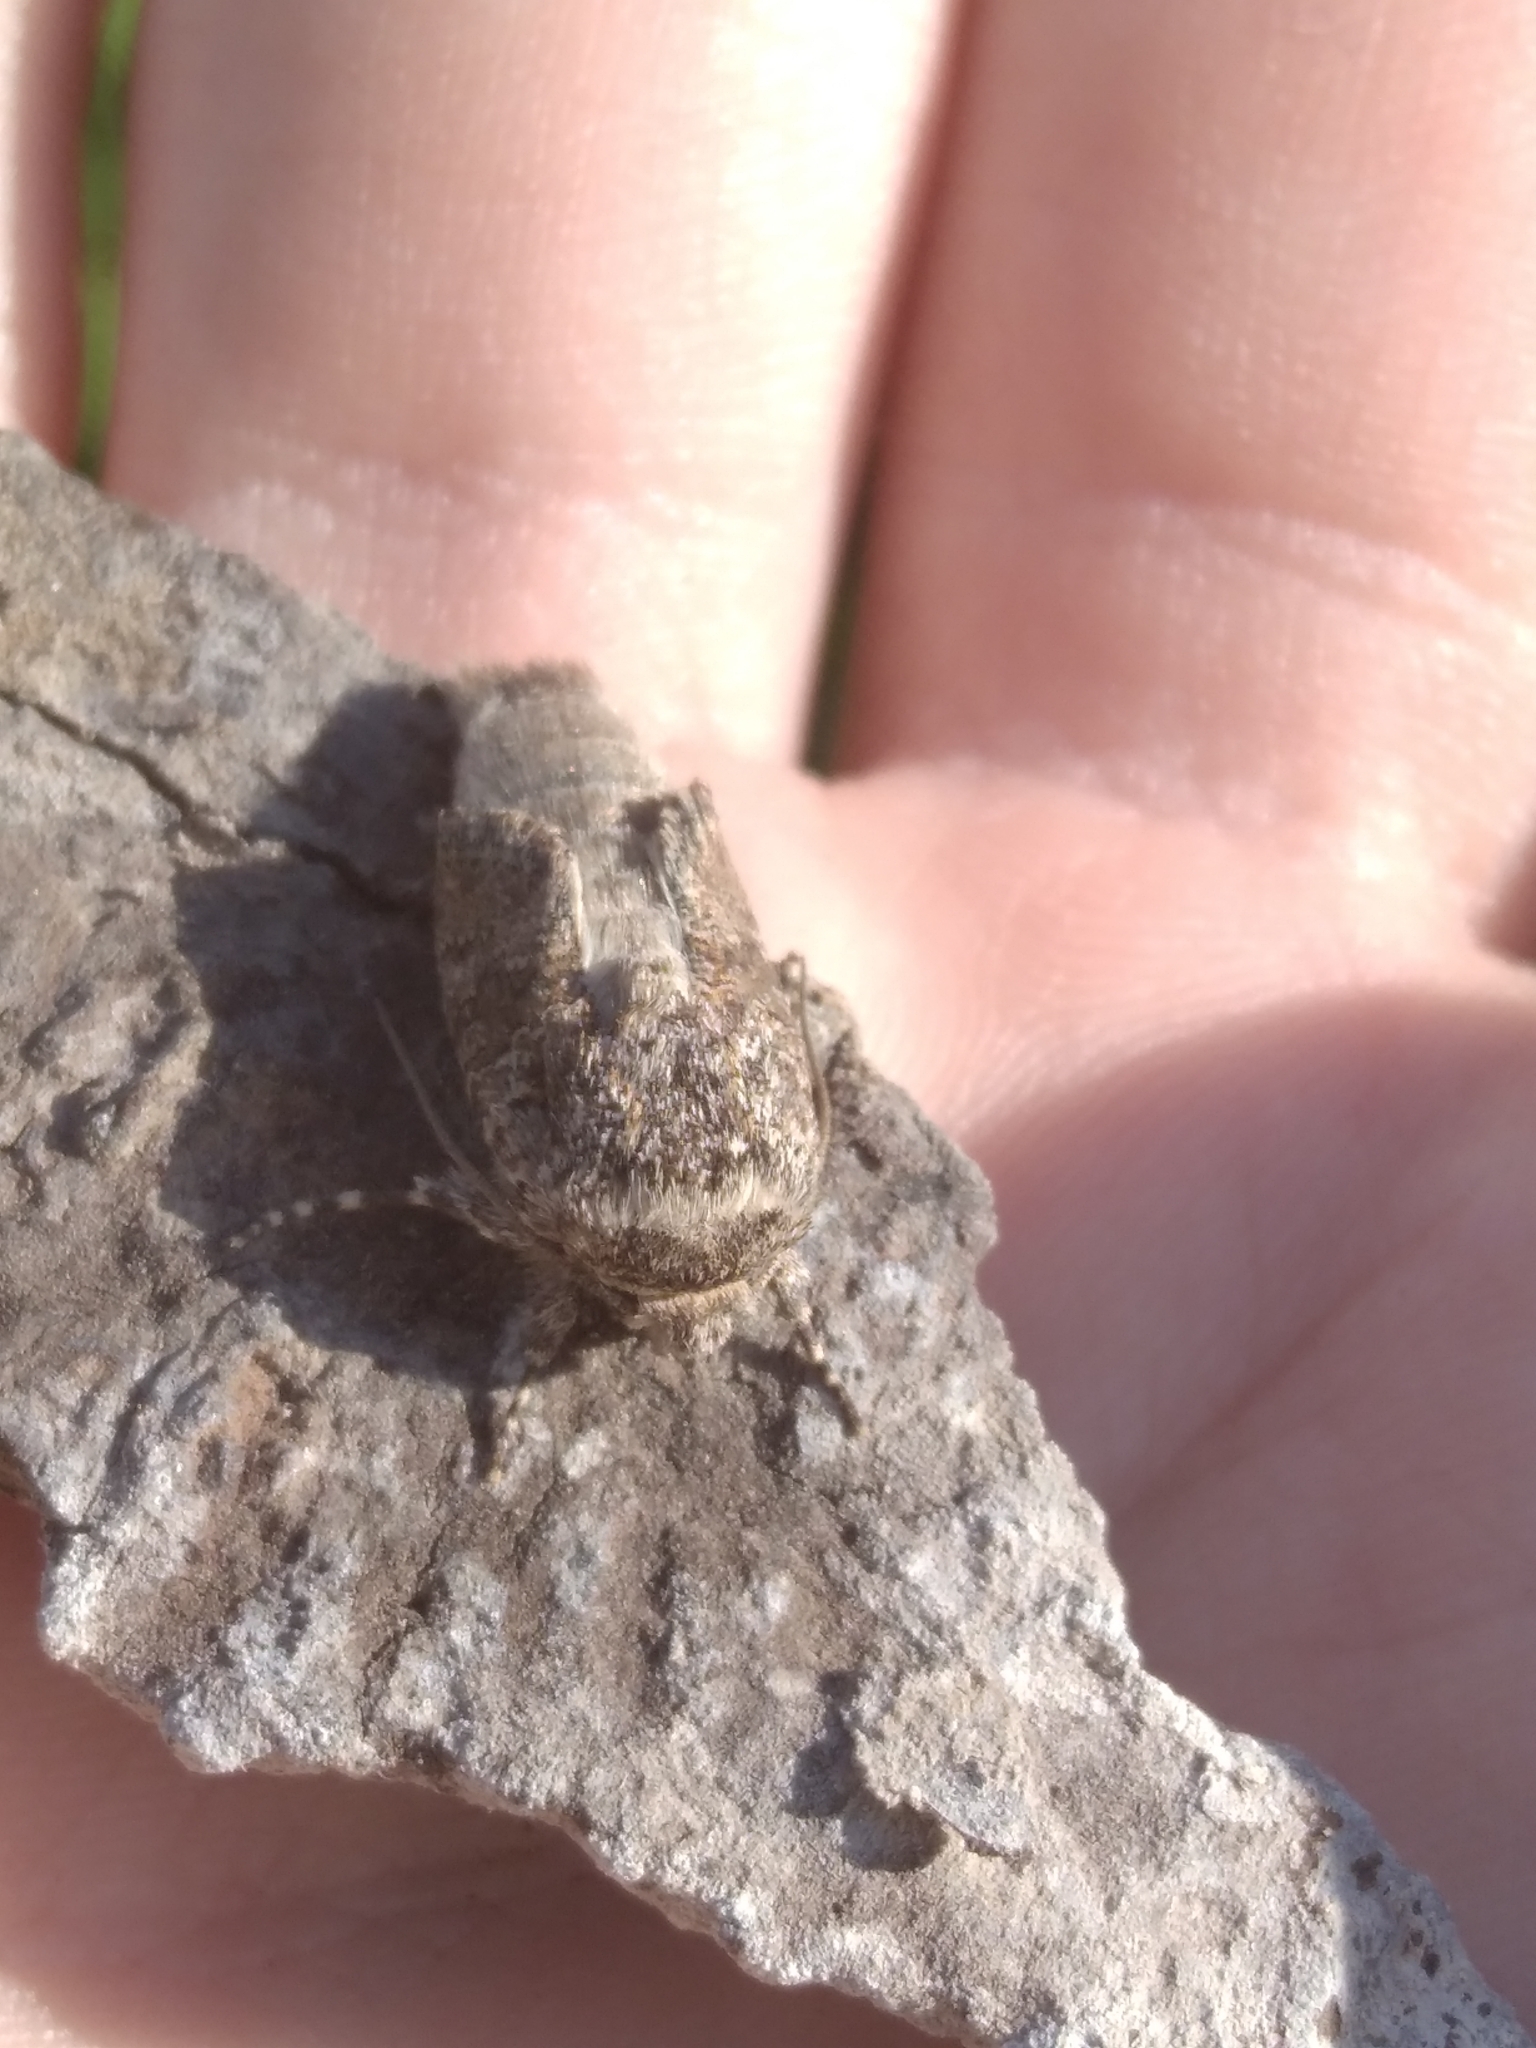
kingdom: Animalia
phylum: Arthropoda
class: Insecta
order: Lepidoptera
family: Noctuidae
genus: Hecatera
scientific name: Hecatera dysodea
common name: Small ranunculus
